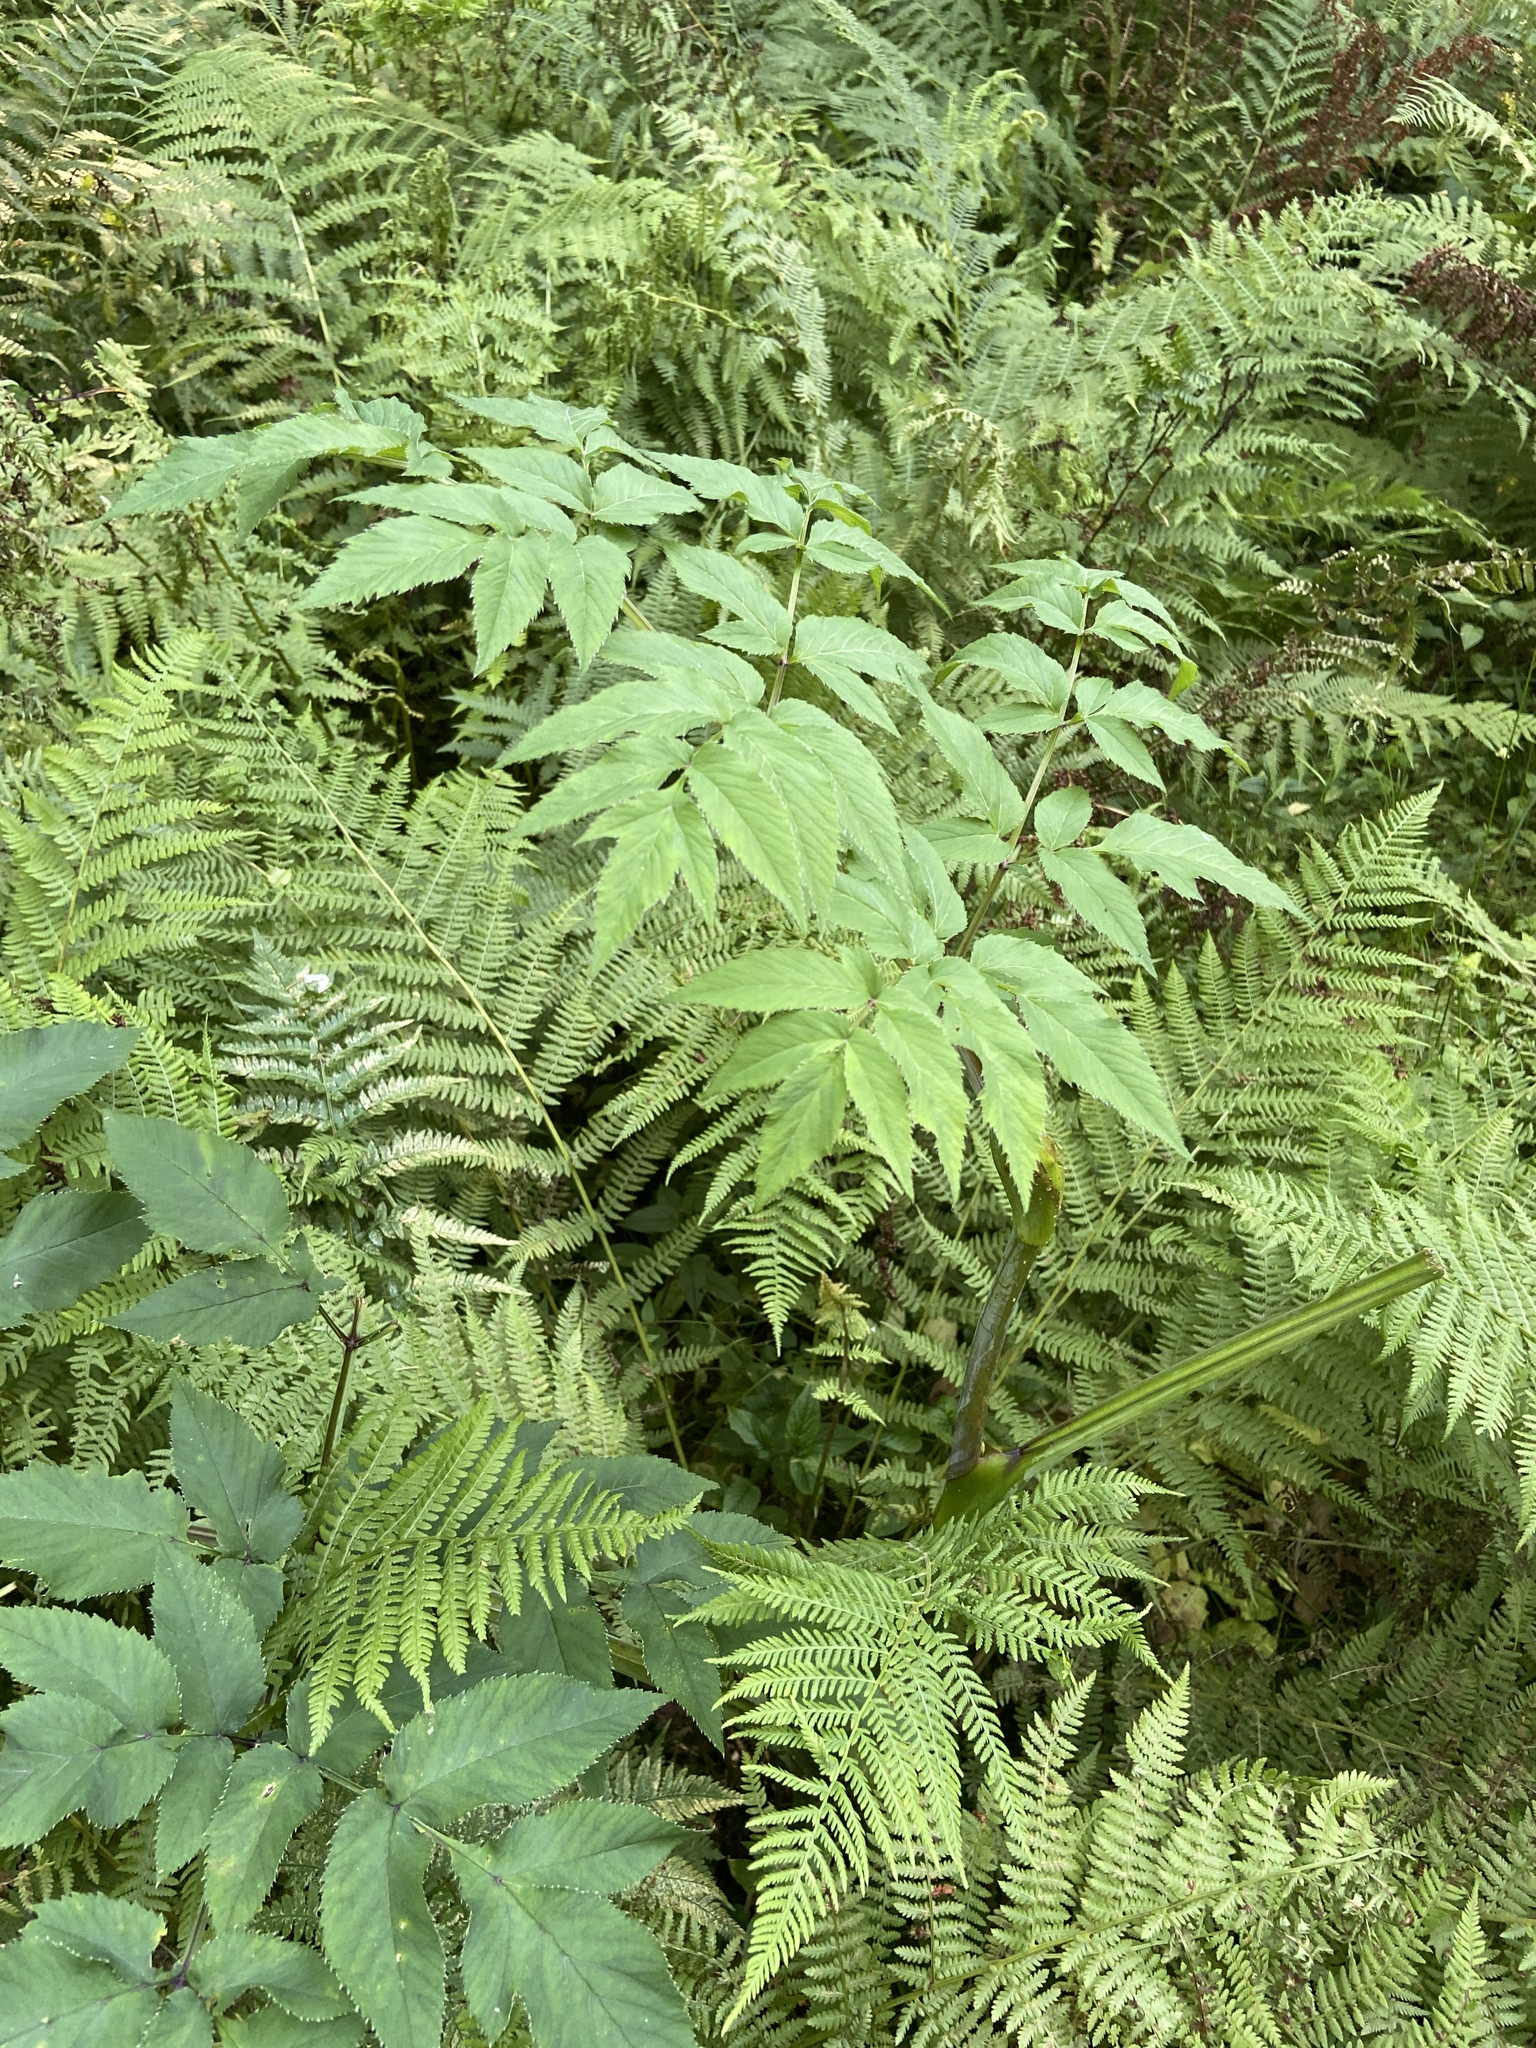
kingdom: Plantae
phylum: Tracheophyta
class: Magnoliopsida
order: Apiales
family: Apiaceae
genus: Angelica
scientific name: Angelica sylvestris
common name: Wild angelica
